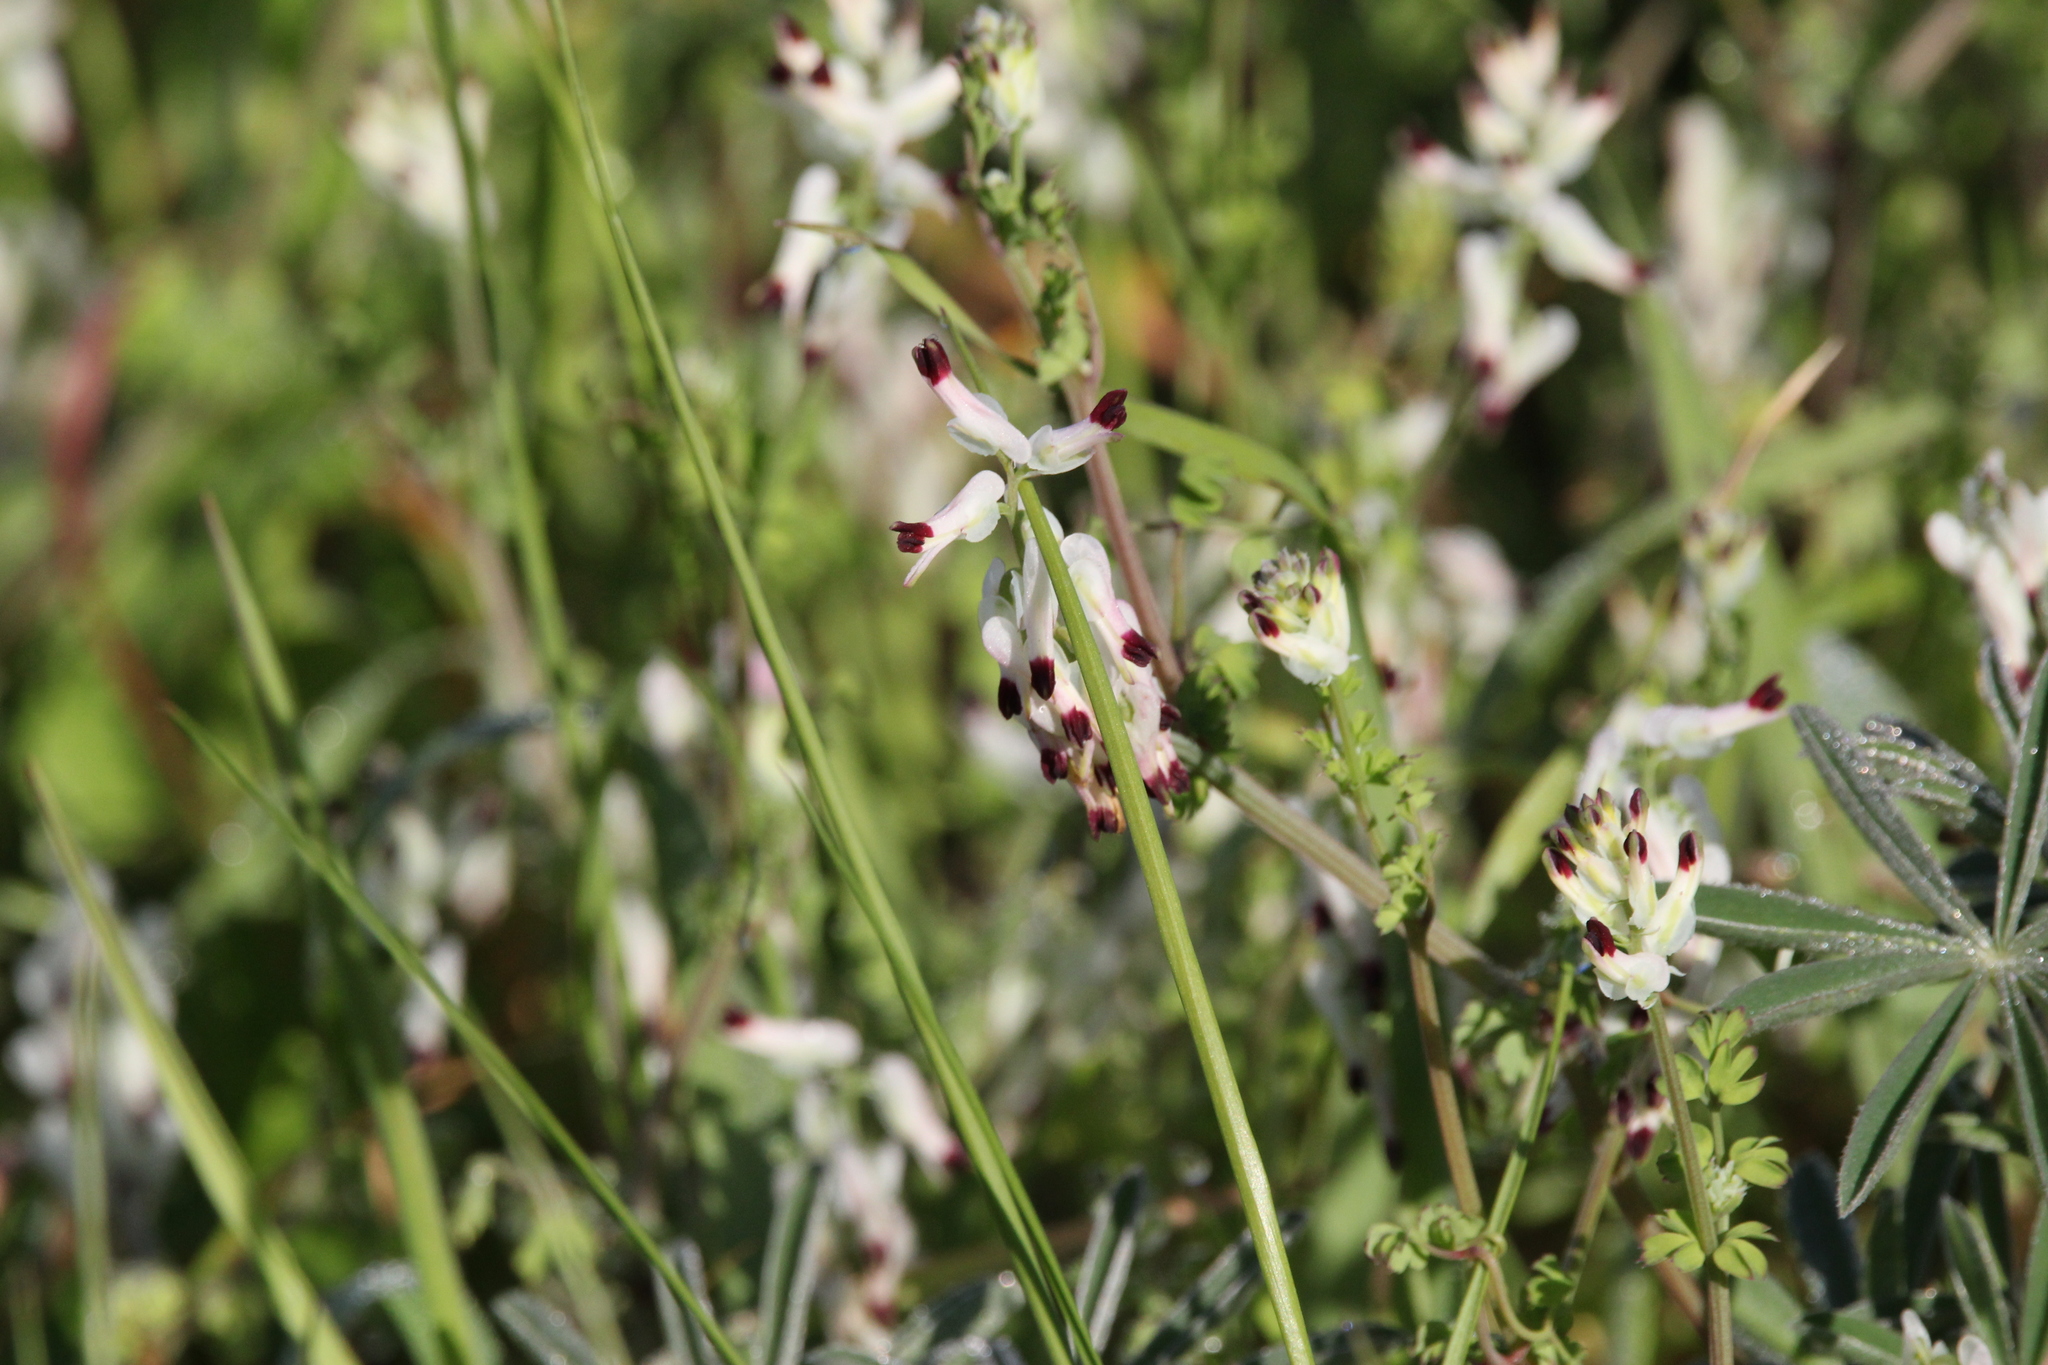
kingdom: Plantae
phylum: Tracheophyta
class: Magnoliopsida
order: Ranunculales
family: Papaveraceae
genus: Fumaria
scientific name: Fumaria capreolata
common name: White ramping-fumitory
